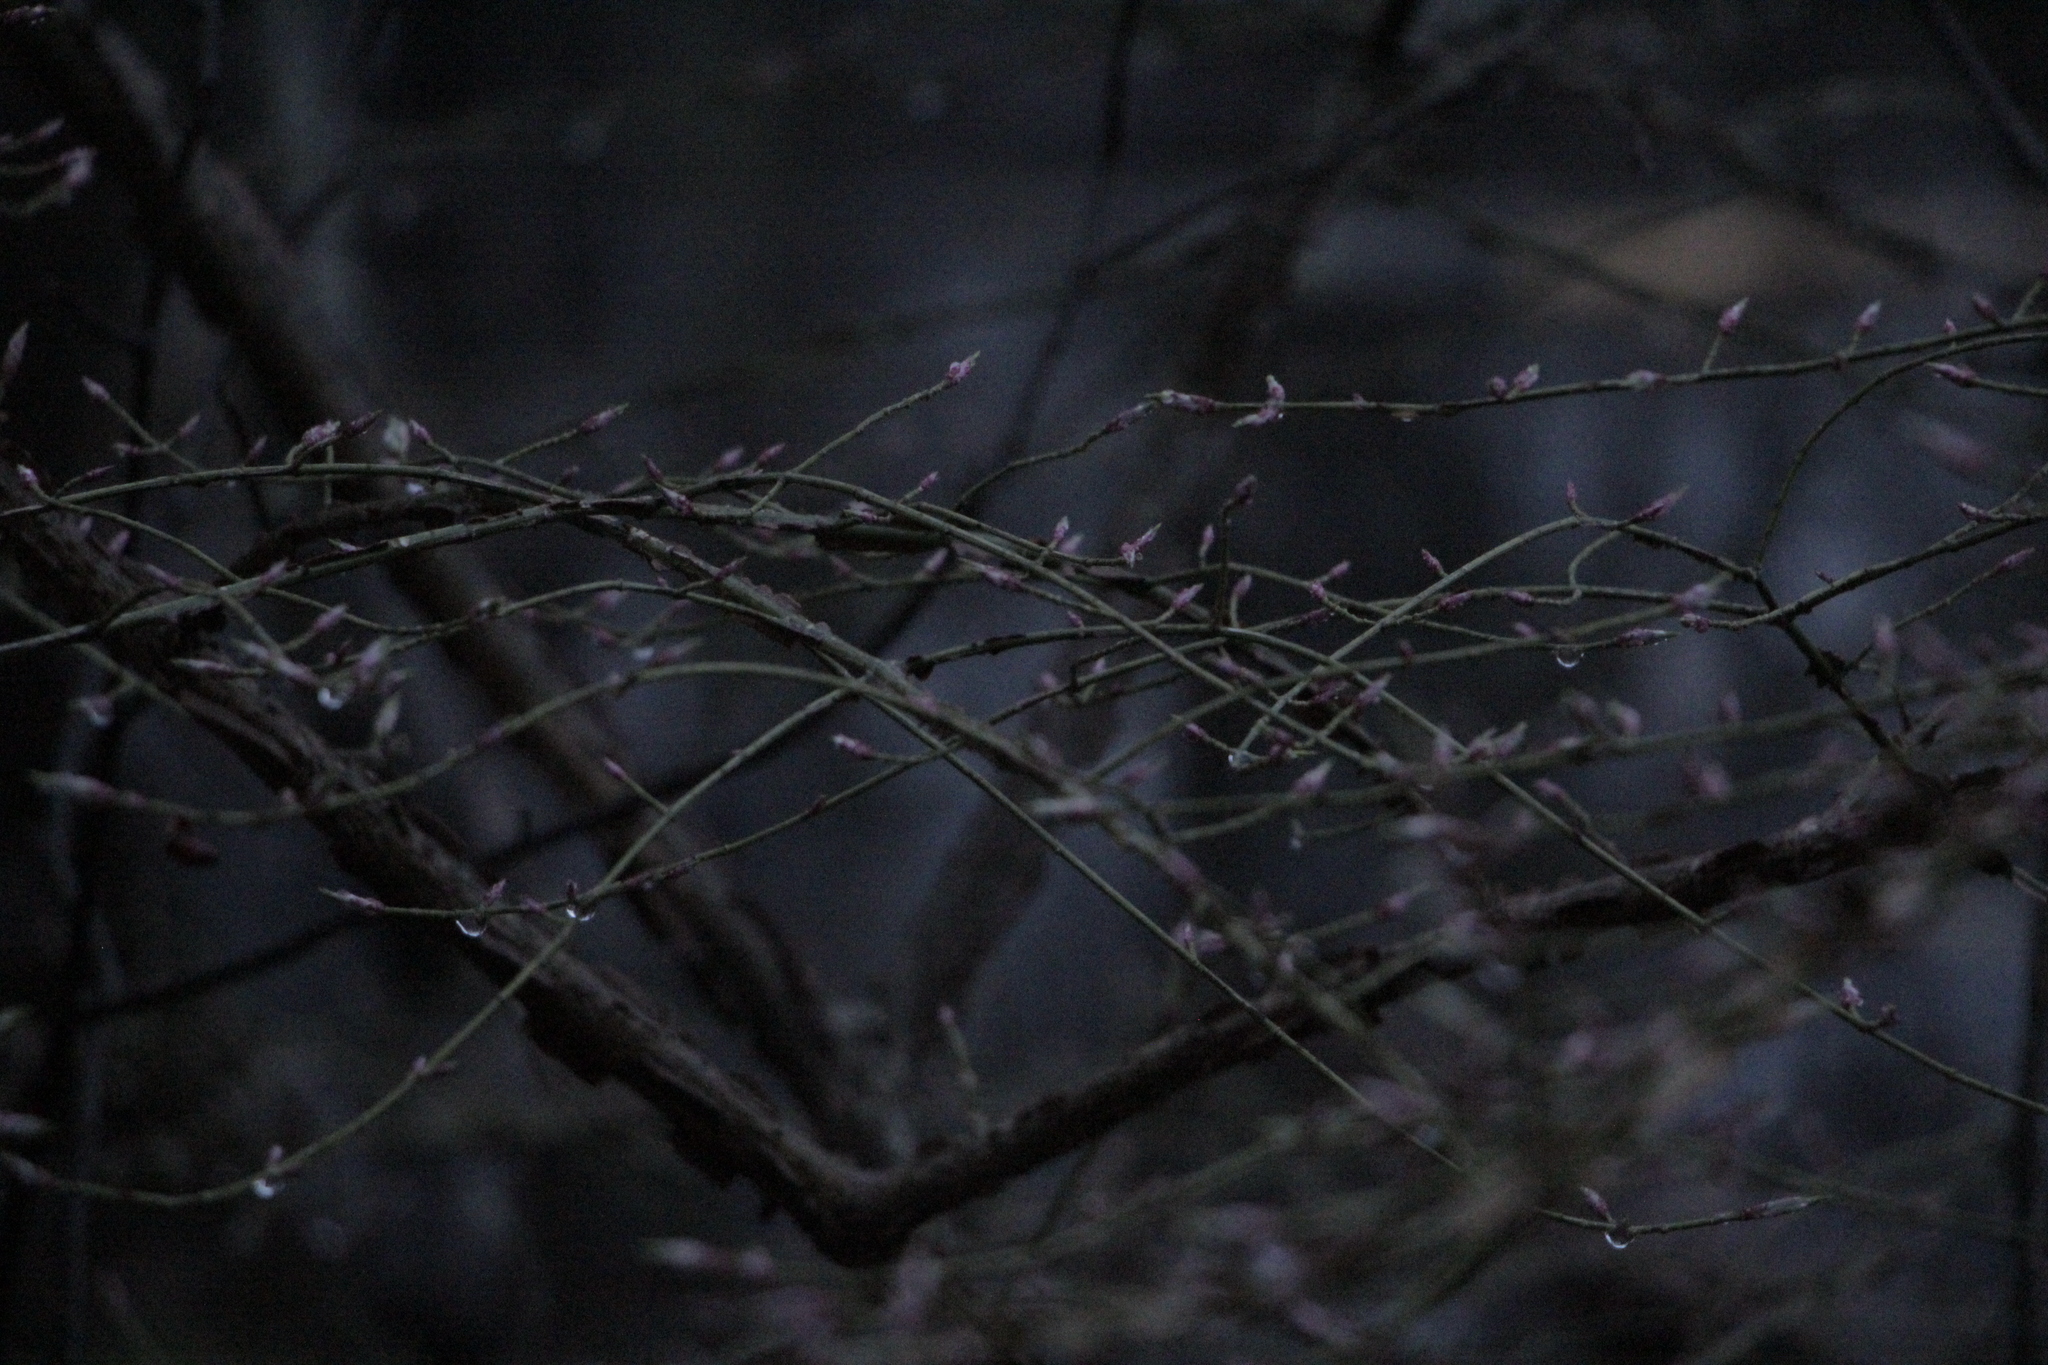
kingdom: Plantae
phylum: Tracheophyta
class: Magnoliopsida
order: Celastrales
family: Celastraceae
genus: Euonymus
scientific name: Euonymus alatus
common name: Winged euonymus
